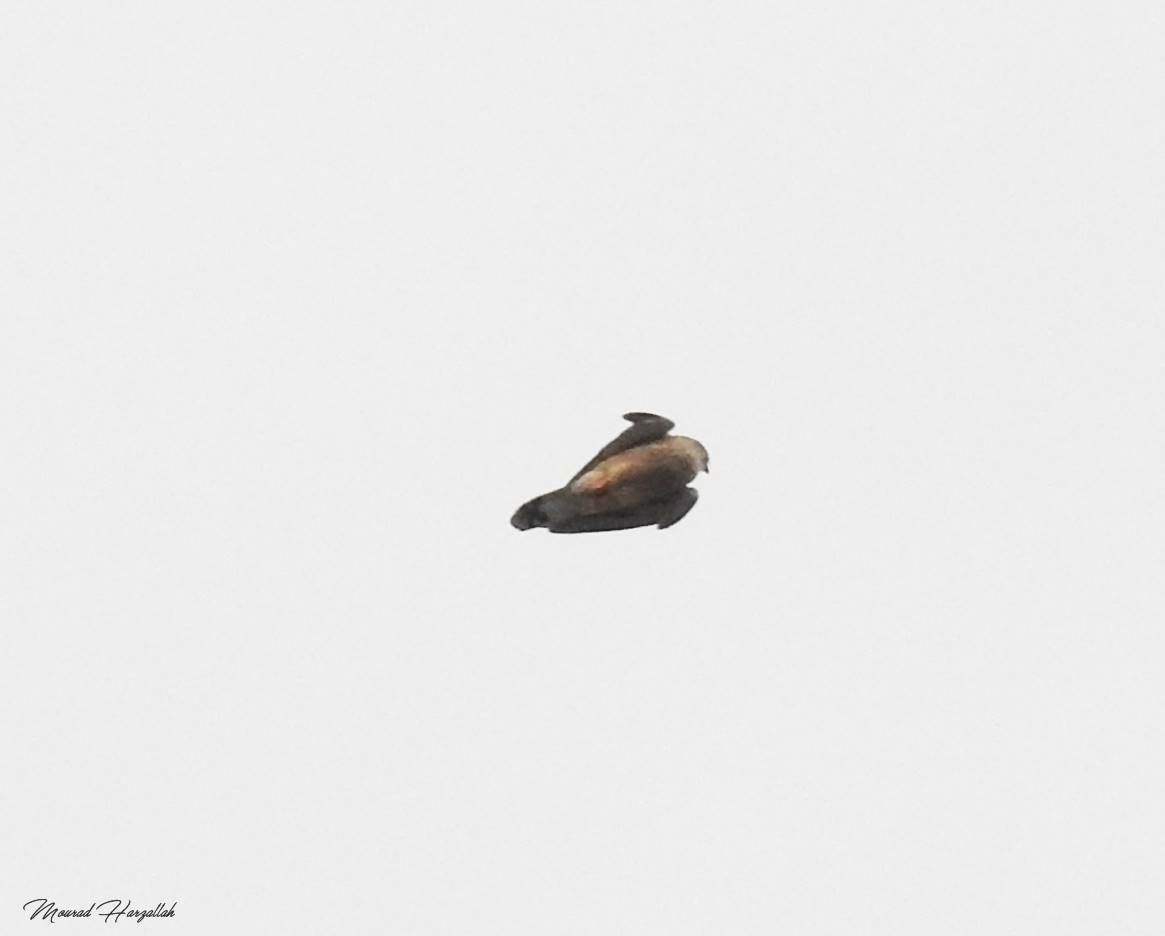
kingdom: Animalia
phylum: Chordata
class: Aves
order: Falconiformes
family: Falconidae
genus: Falco
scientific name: Falco naumanni
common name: Lesser kestrel
